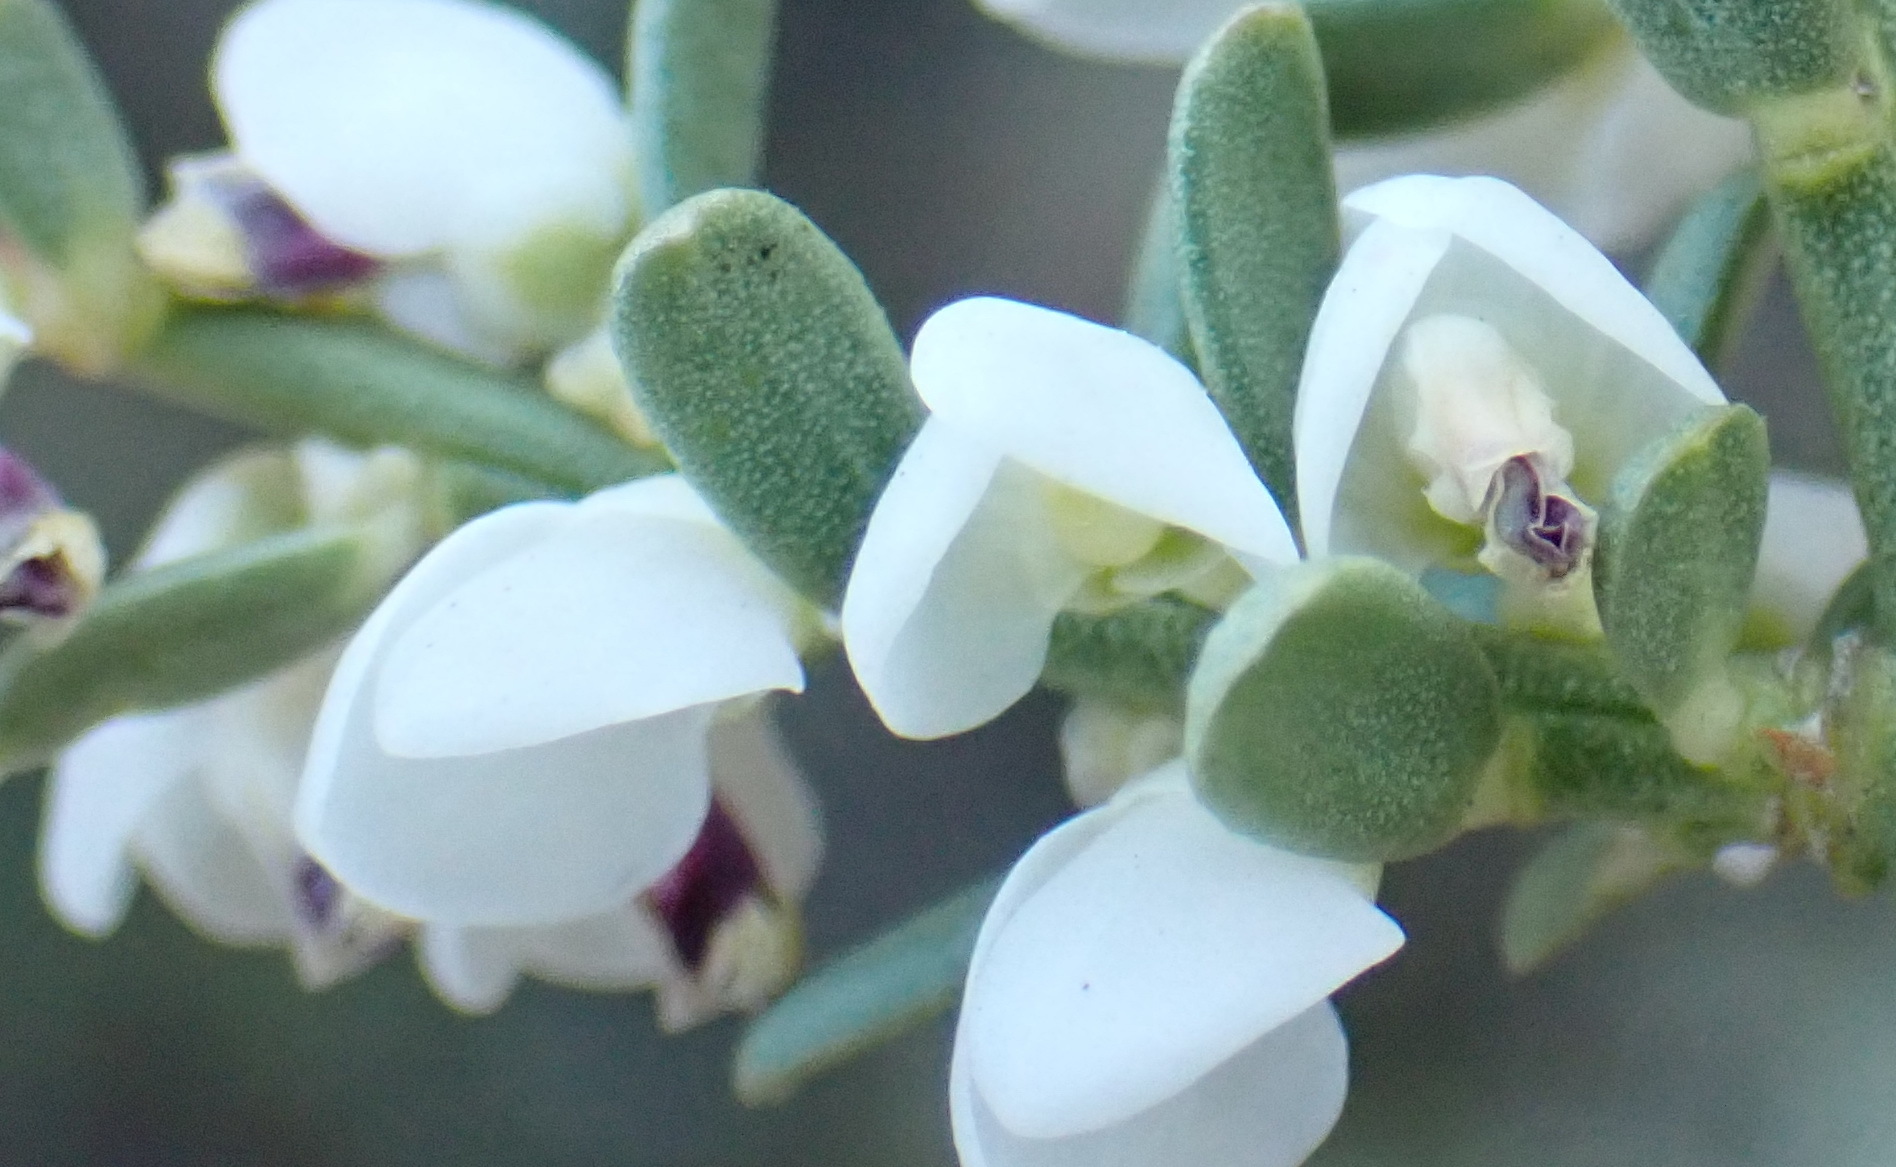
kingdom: Plantae
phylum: Tracheophyta
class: Magnoliopsida
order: Fabales
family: Polygalaceae
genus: Muraltia
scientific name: Muraltia spinosa
